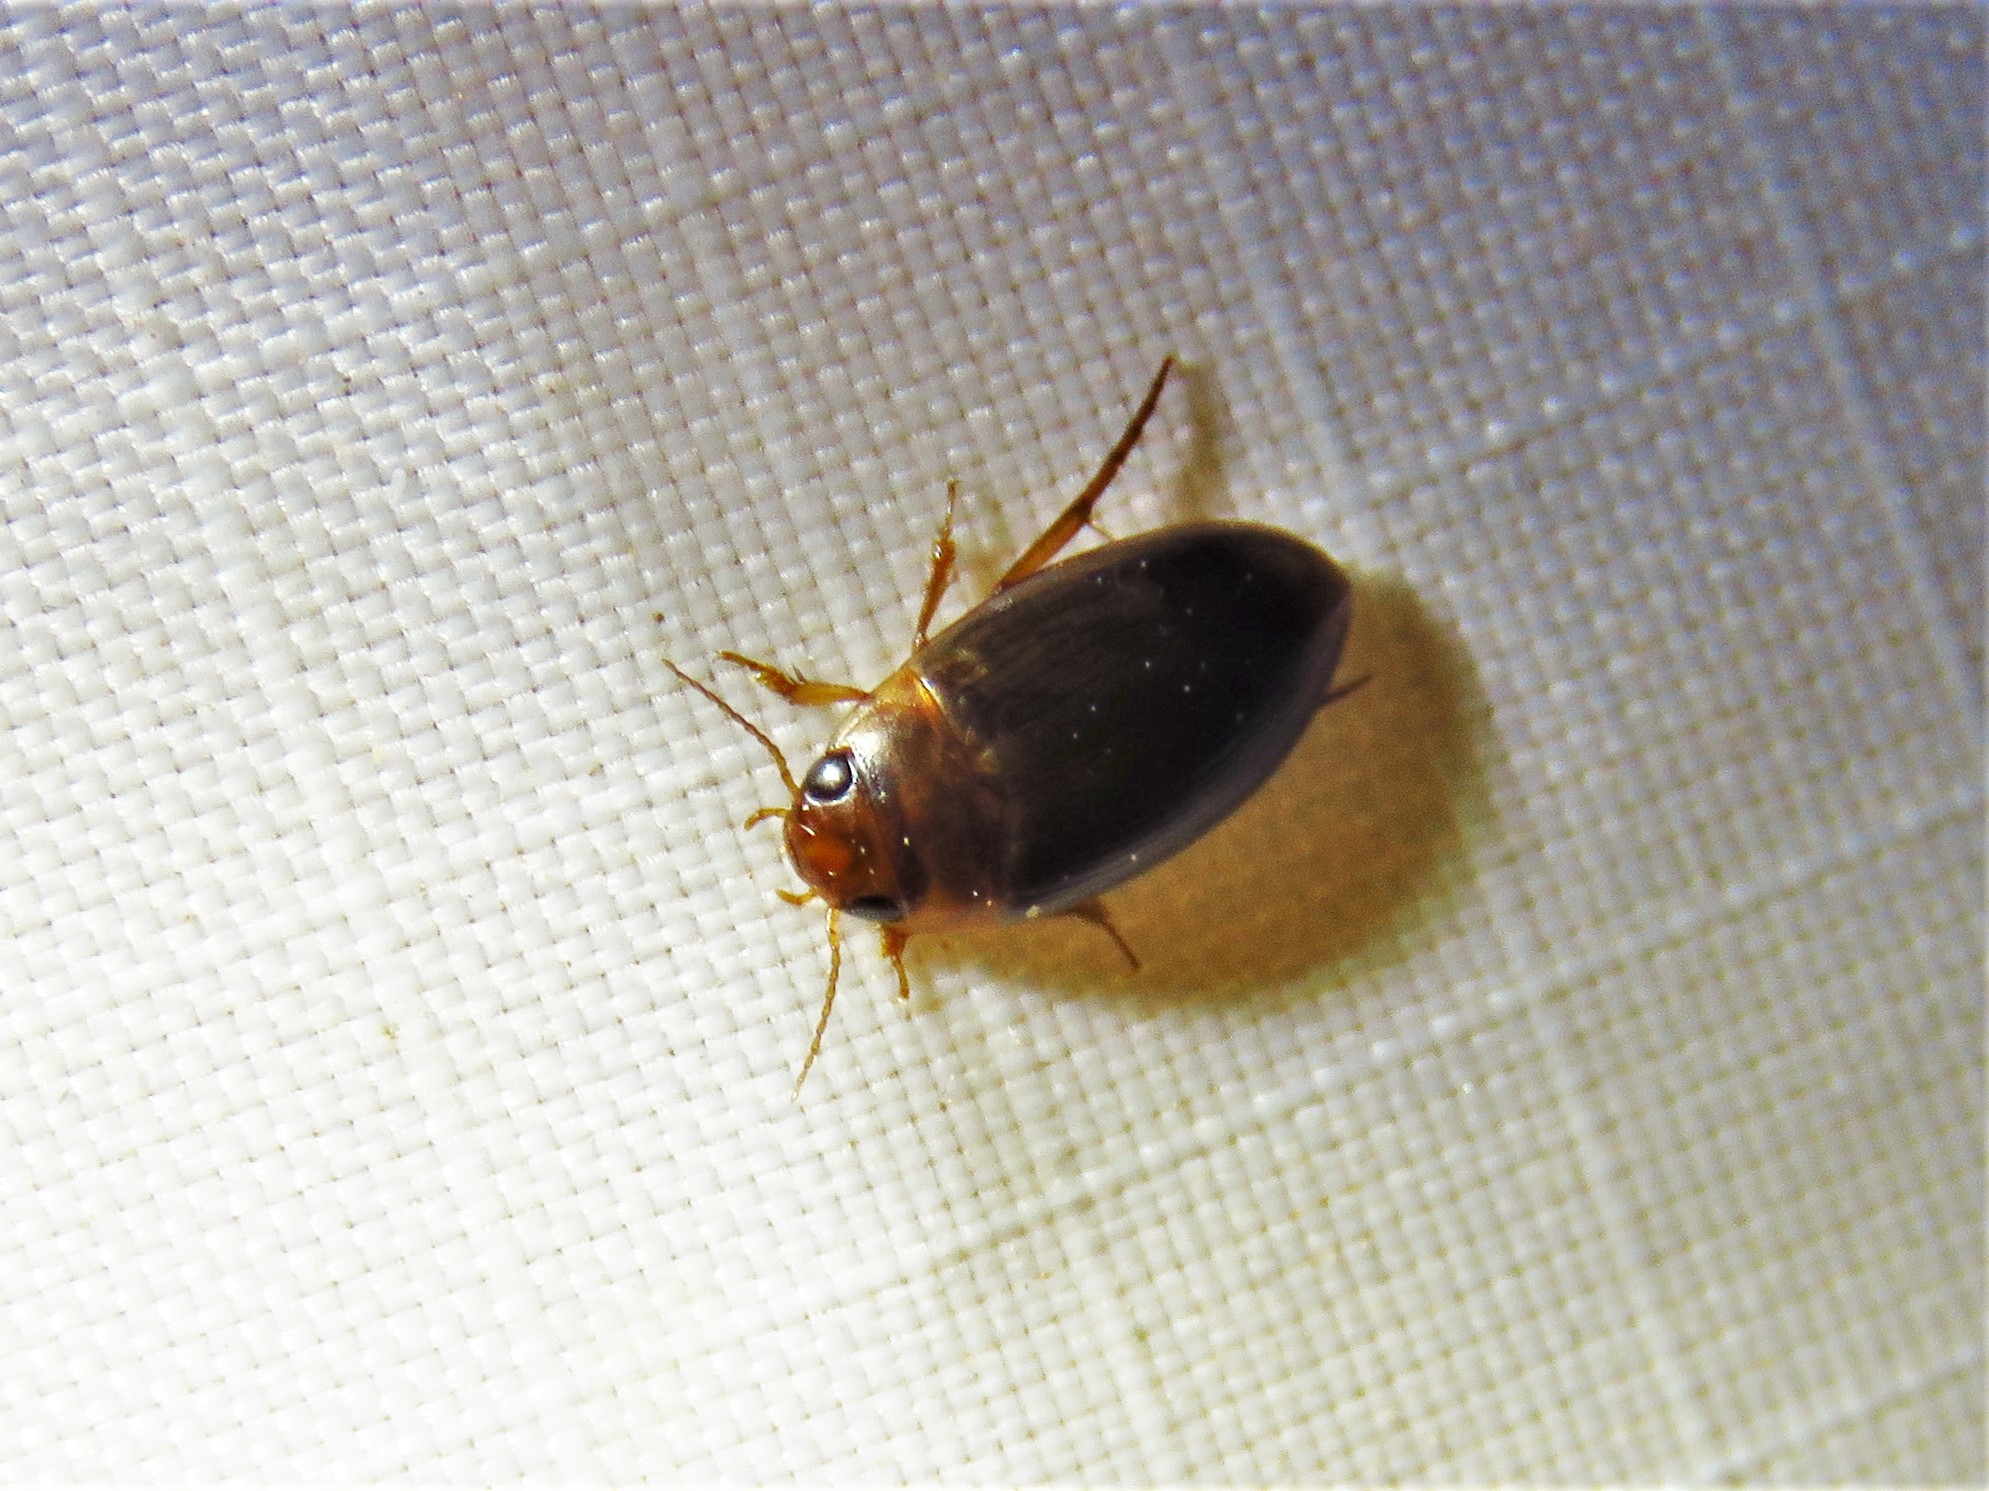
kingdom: Animalia
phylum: Arthropoda
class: Insecta
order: Coleoptera
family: Dytiscidae
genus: Copelatus
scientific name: Copelatus chevrolati
